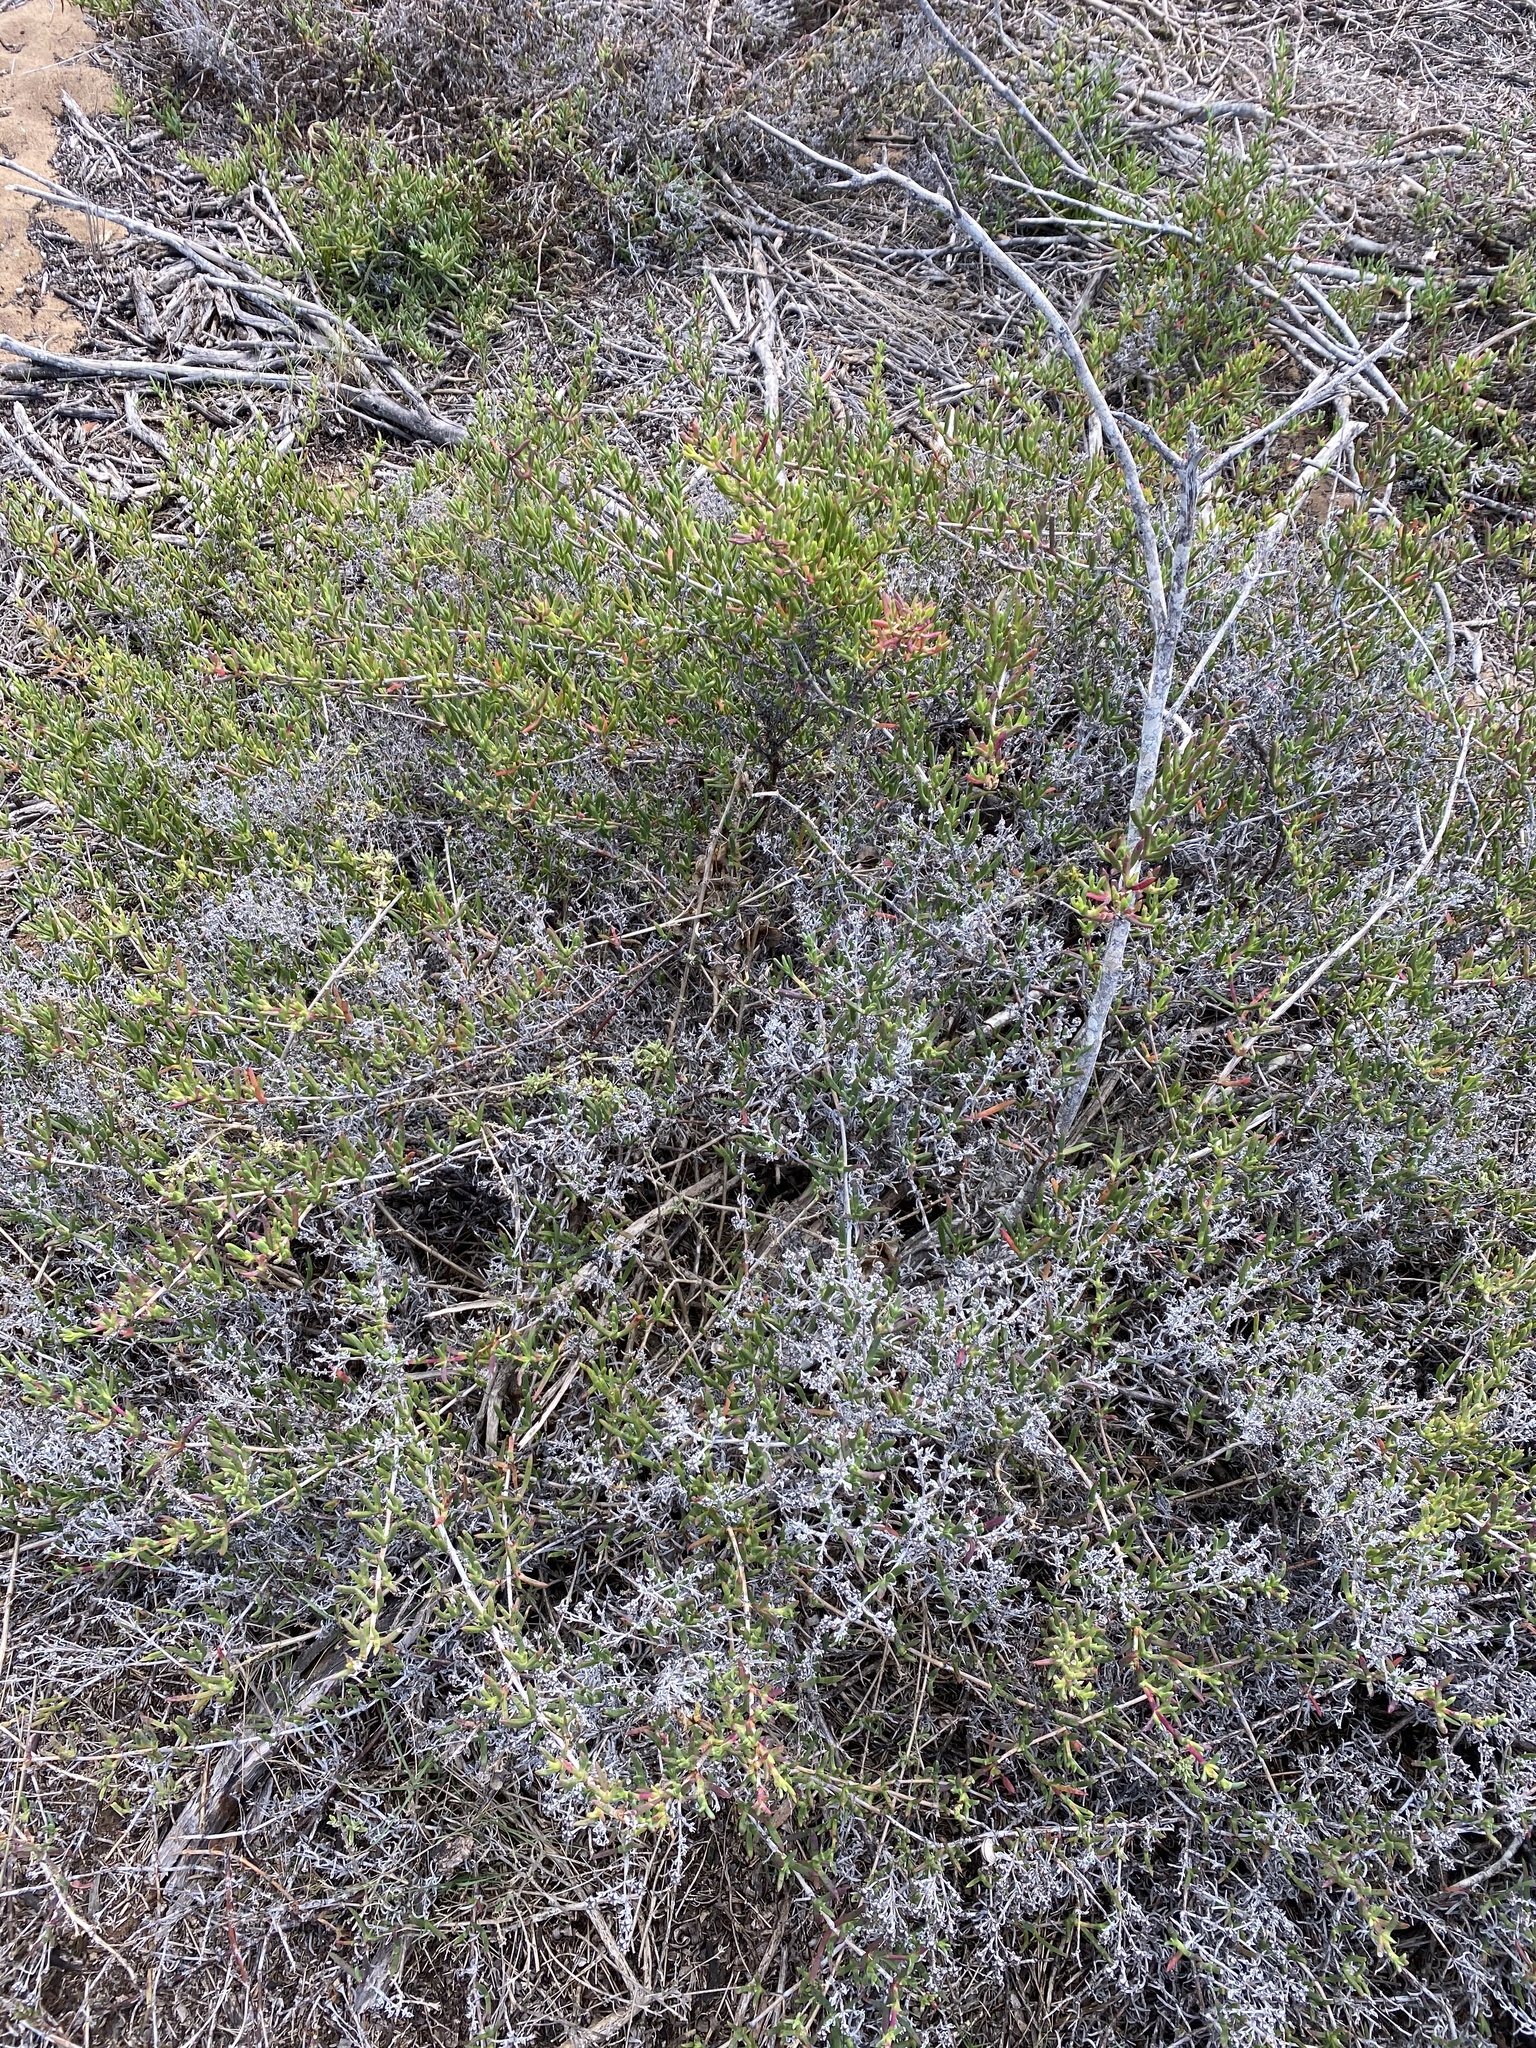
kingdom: Plantae
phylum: Tracheophyta
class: Magnoliopsida
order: Caryophyllales
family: Aizoaceae
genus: Ruschia
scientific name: Ruschia macowanii
